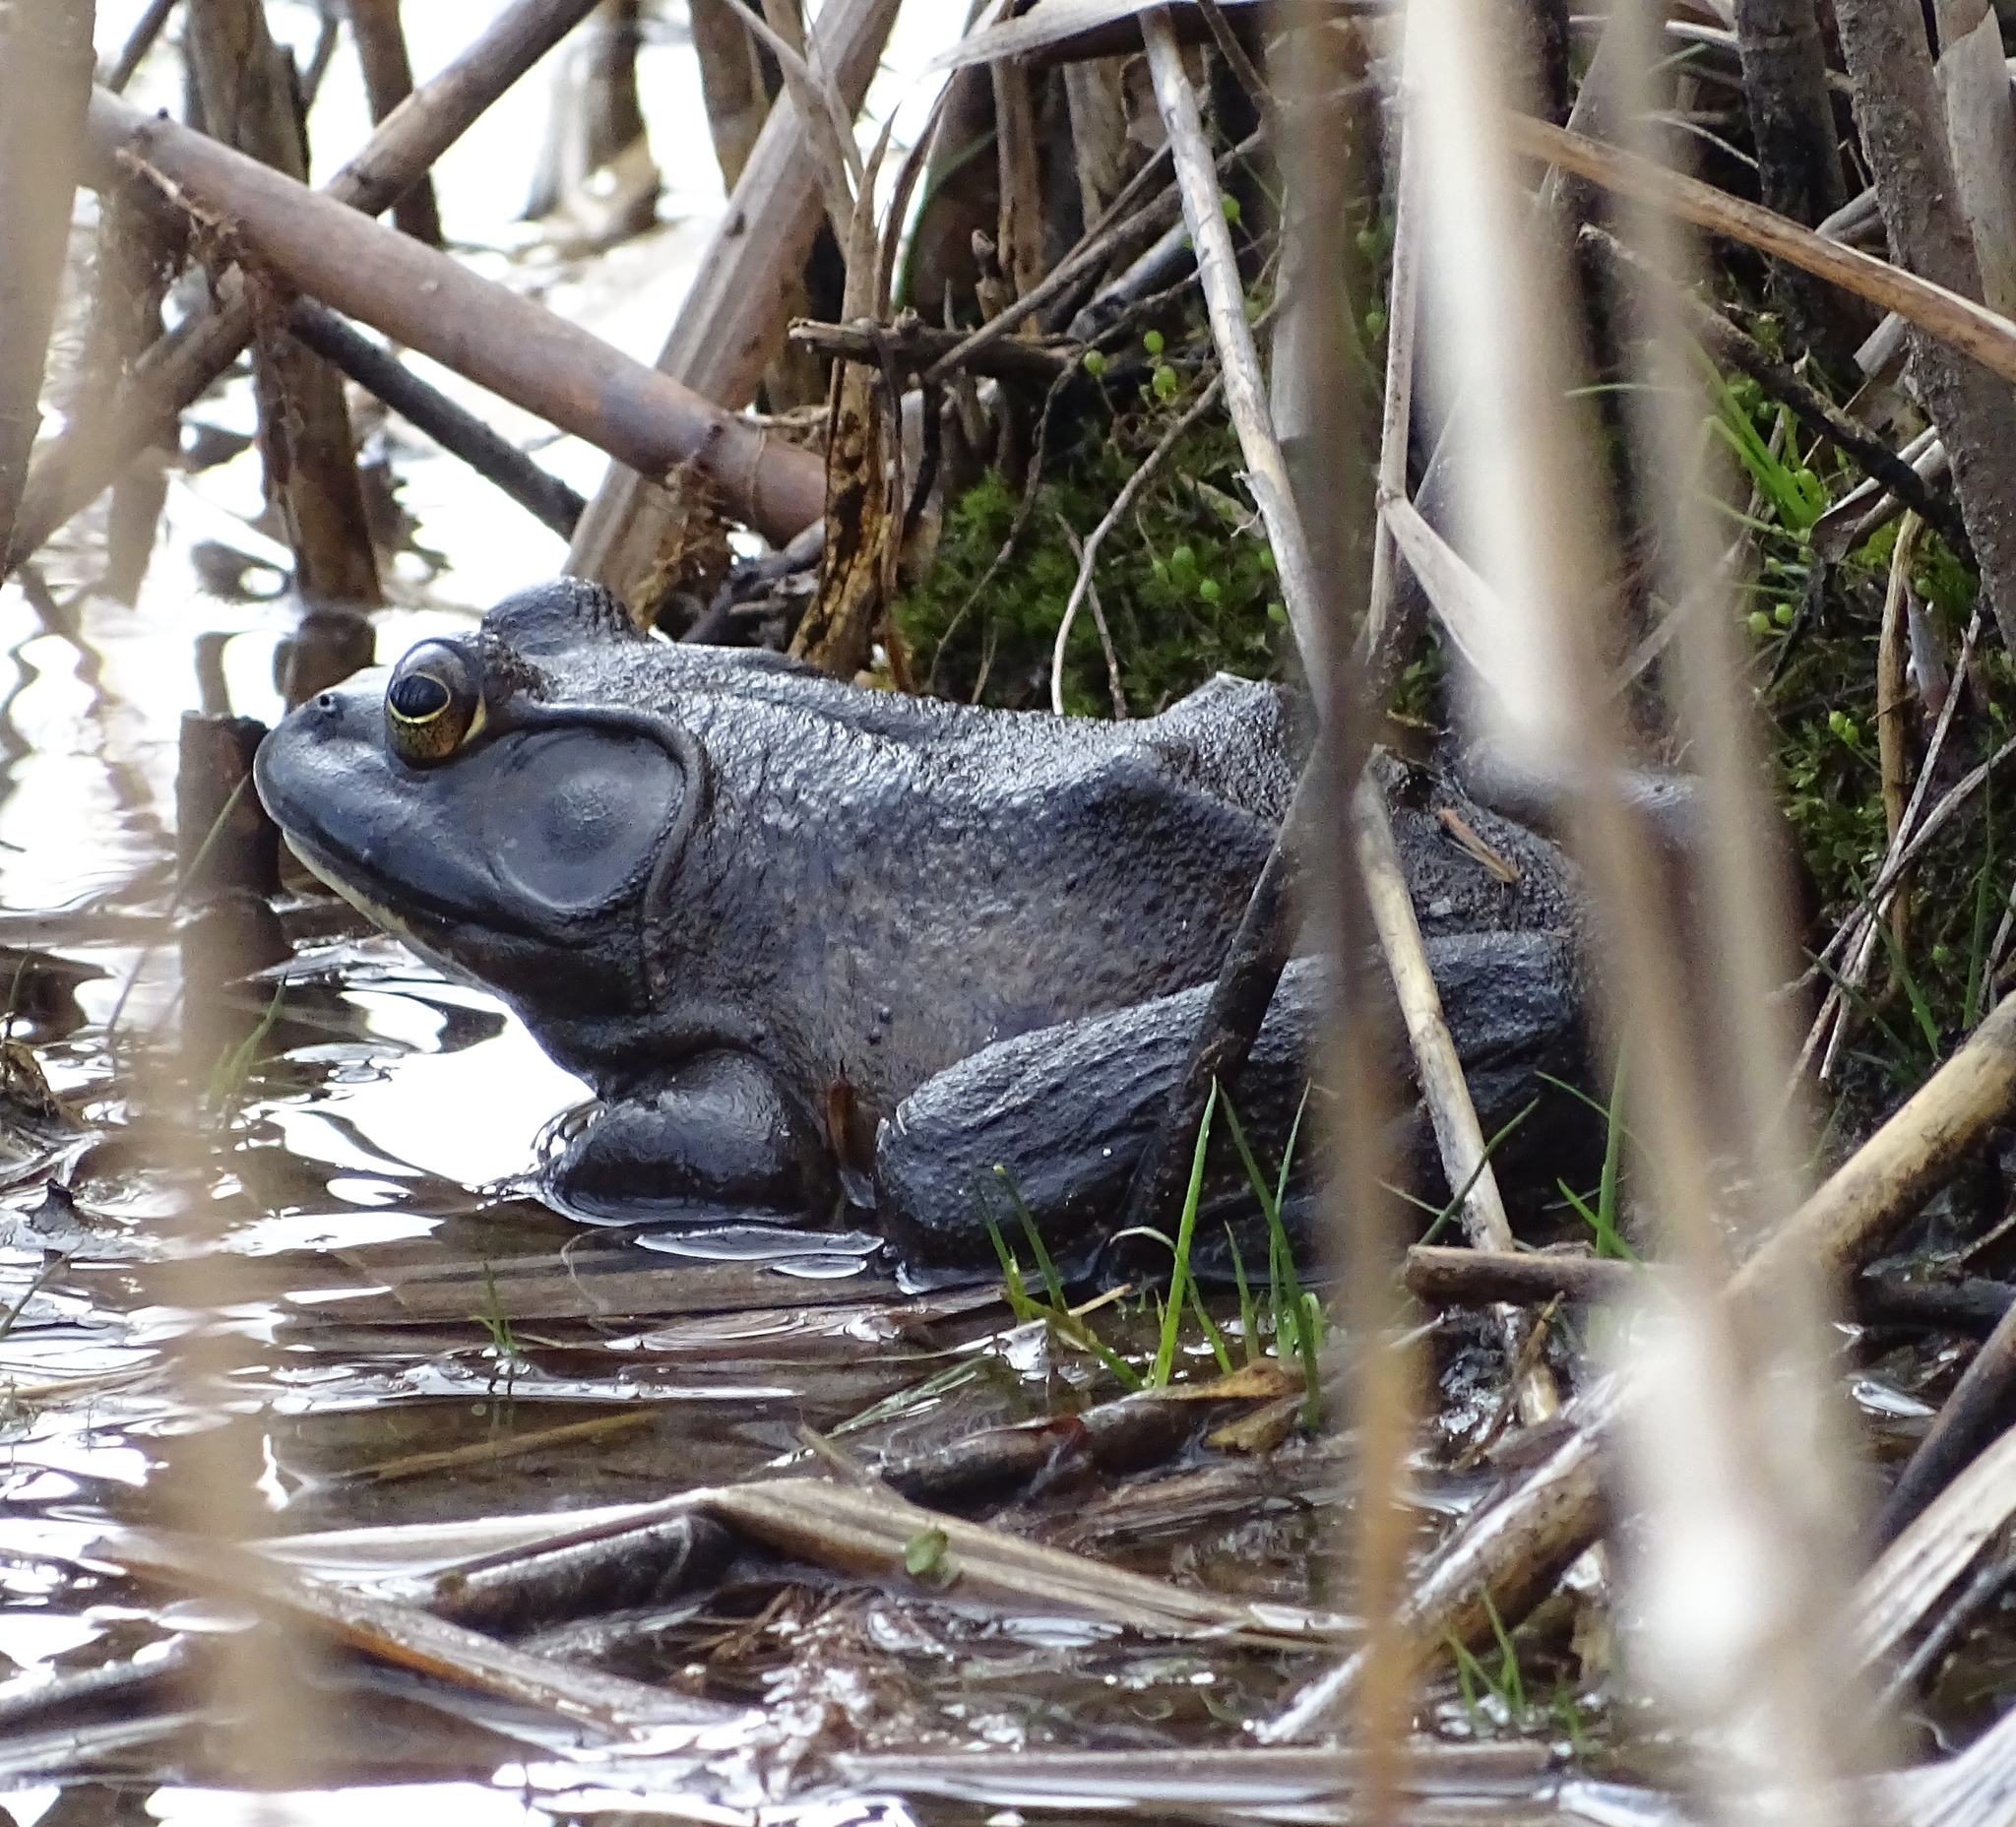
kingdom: Animalia
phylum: Chordata
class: Amphibia
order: Anura
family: Ranidae
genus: Lithobates
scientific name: Lithobates catesbeianus
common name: American bullfrog
